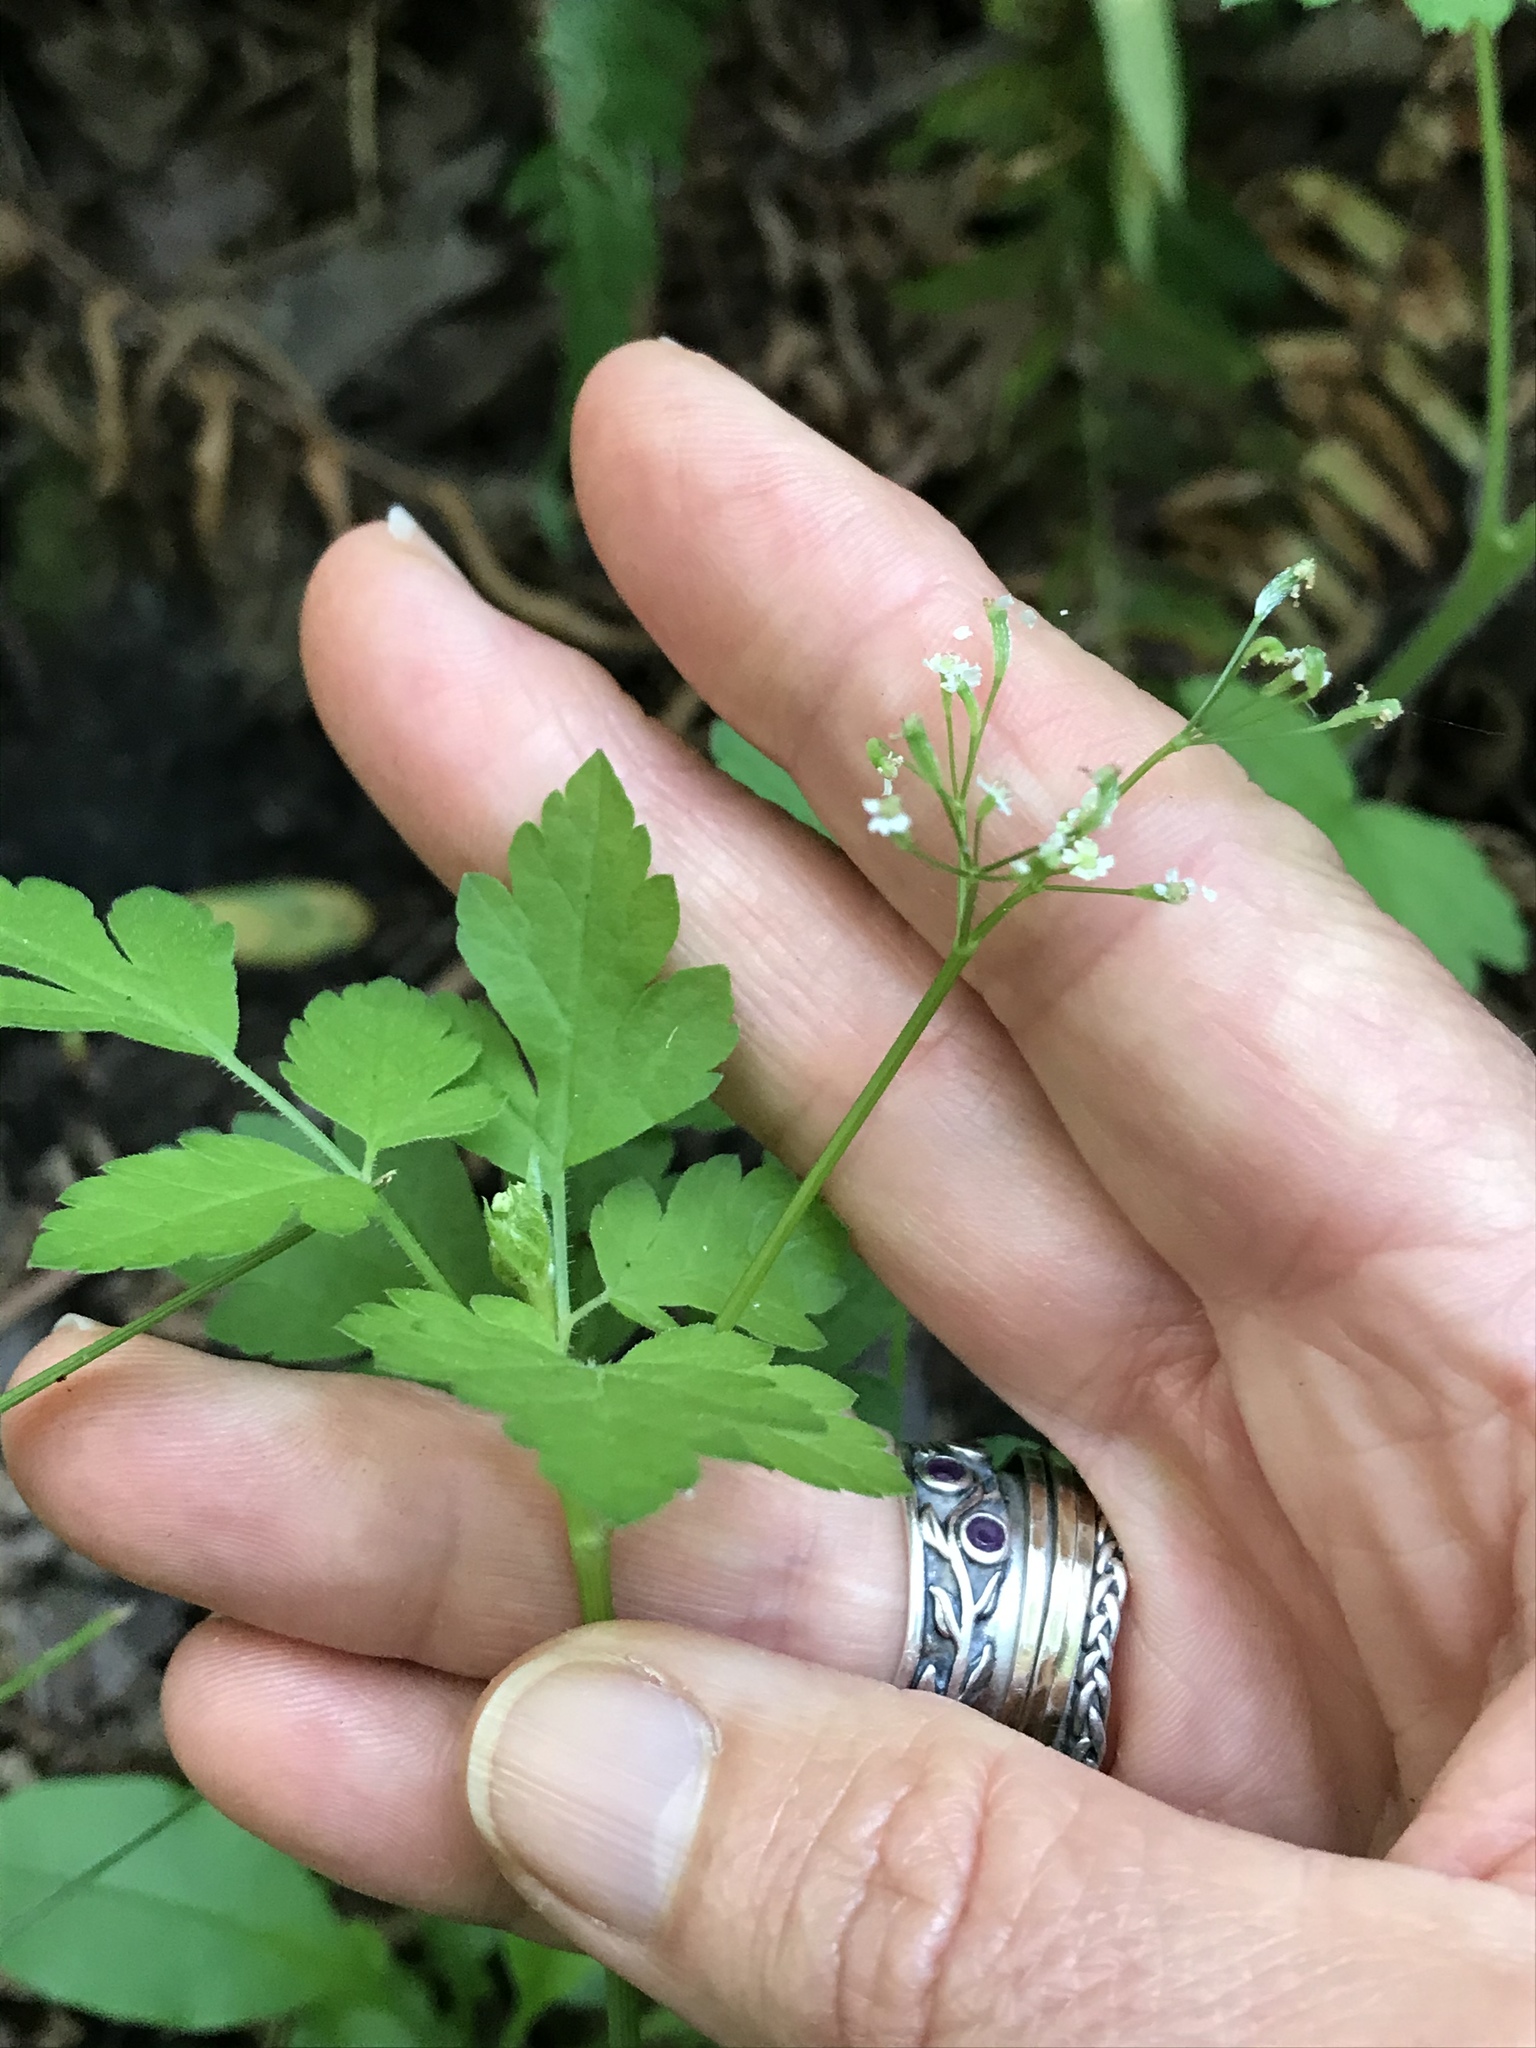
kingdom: Plantae
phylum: Tracheophyta
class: Magnoliopsida
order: Apiales
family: Apiaceae
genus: Osmorhiza
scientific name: Osmorhiza berteroi
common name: Mountain sweet cicely
